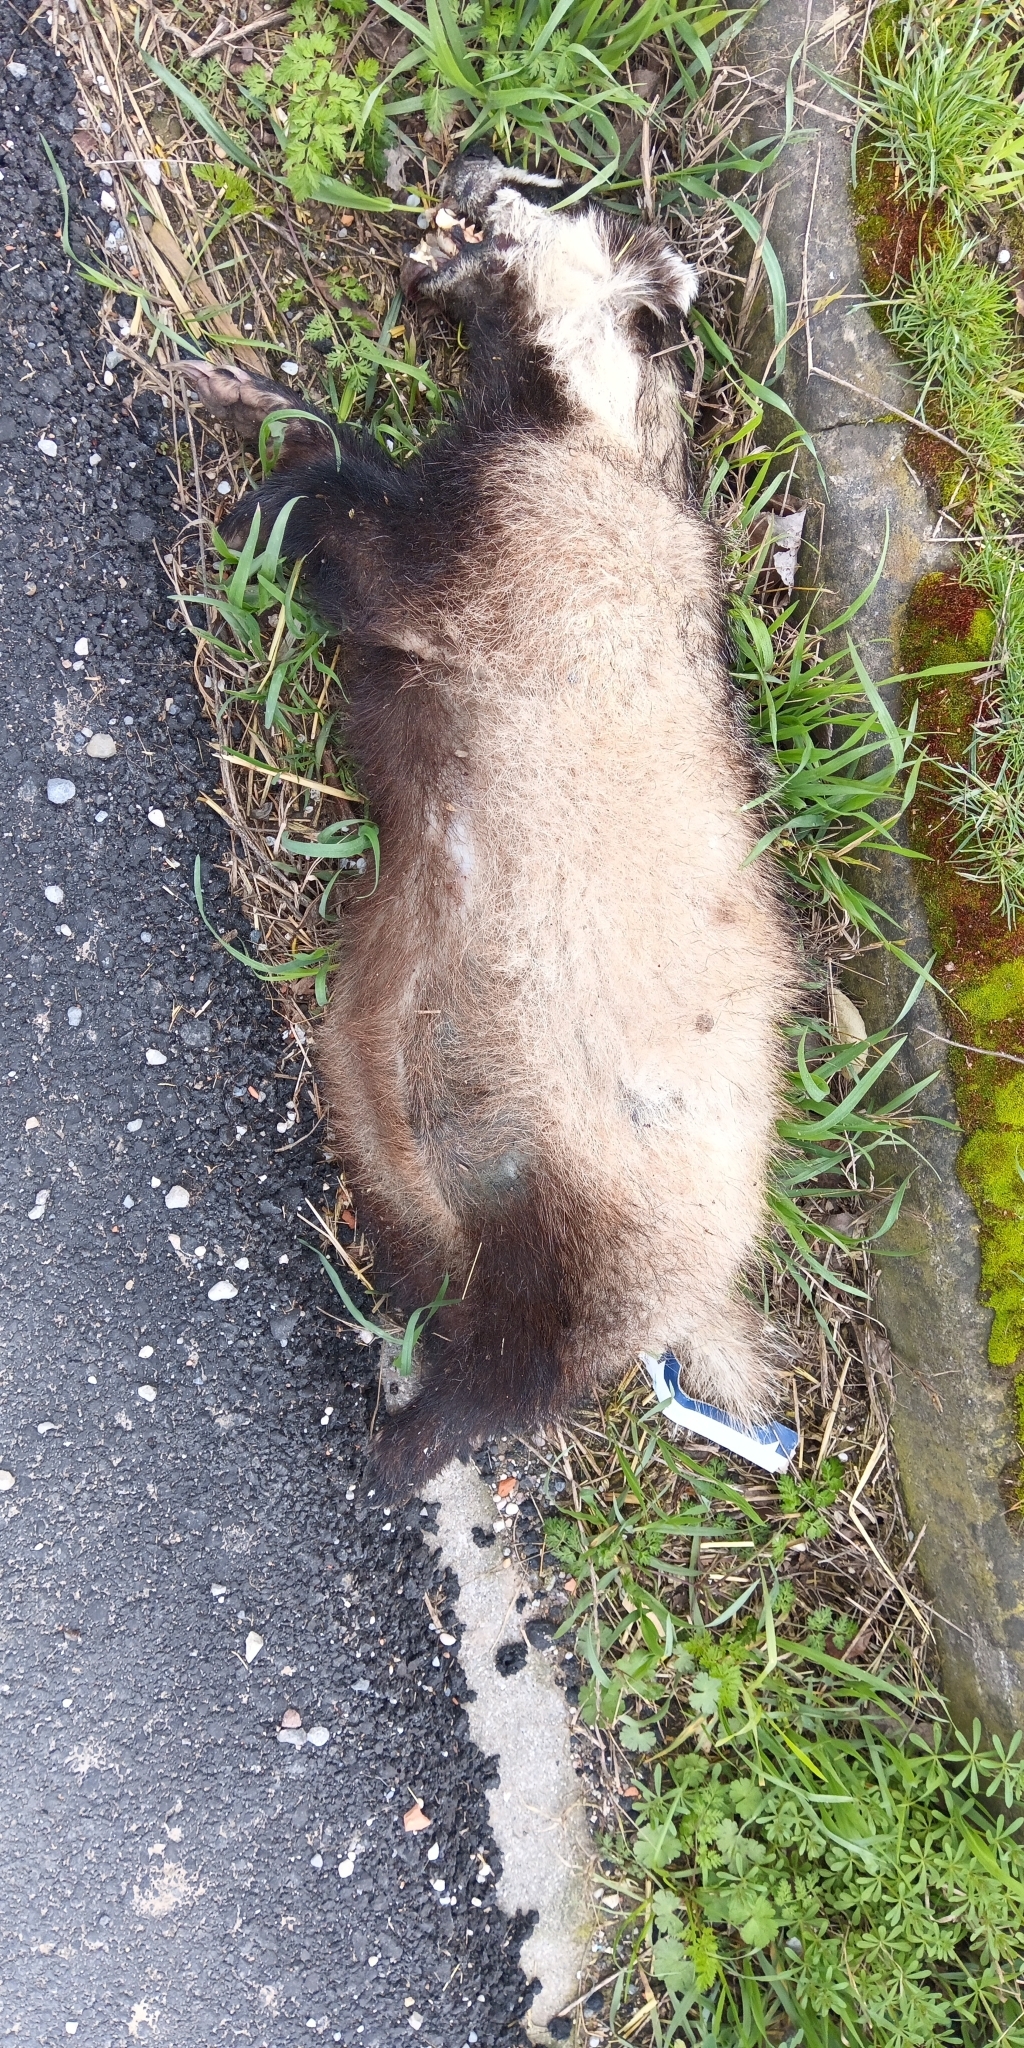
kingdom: Animalia
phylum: Chordata
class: Mammalia
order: Carnivora
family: Mustelidae
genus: Meles
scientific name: Meles meles
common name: Eurasian badger
